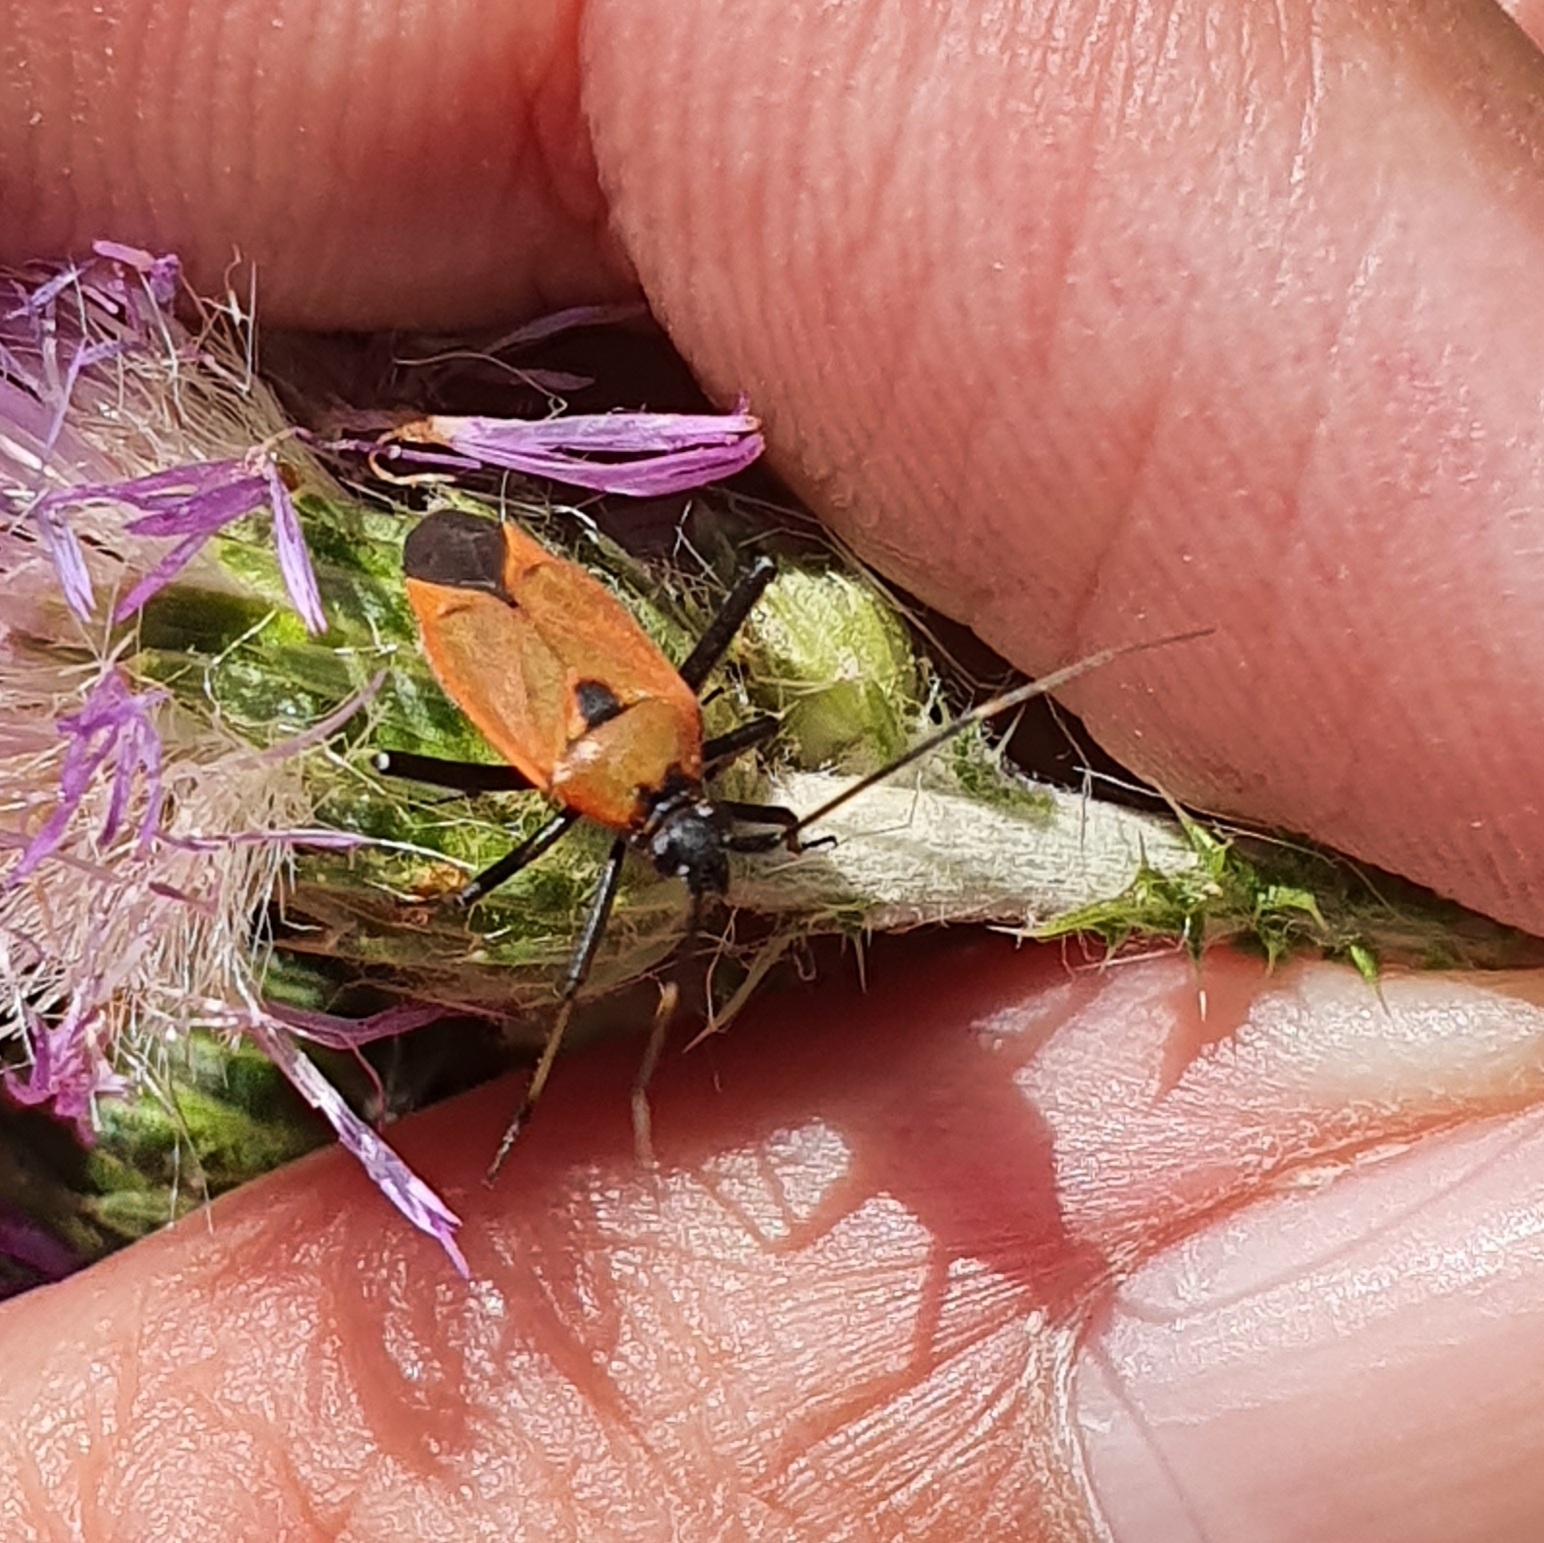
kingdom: Animalia
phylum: Arthropoda
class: Insecta
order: Hemiptera
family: Miridae
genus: Calocoris
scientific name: Calocoris nemoralis
